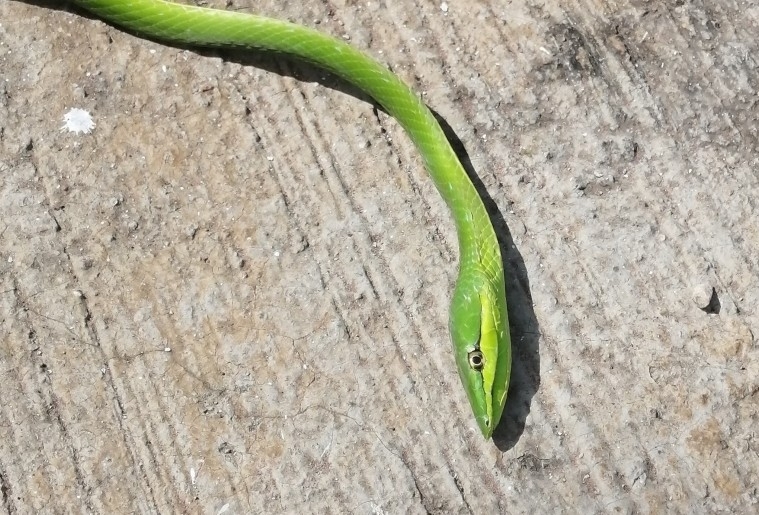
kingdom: Animalia
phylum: Chordata
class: Squamata
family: Colubridae
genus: Oxybelis
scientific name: Oxybelis fulgidus
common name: Green vine snake
